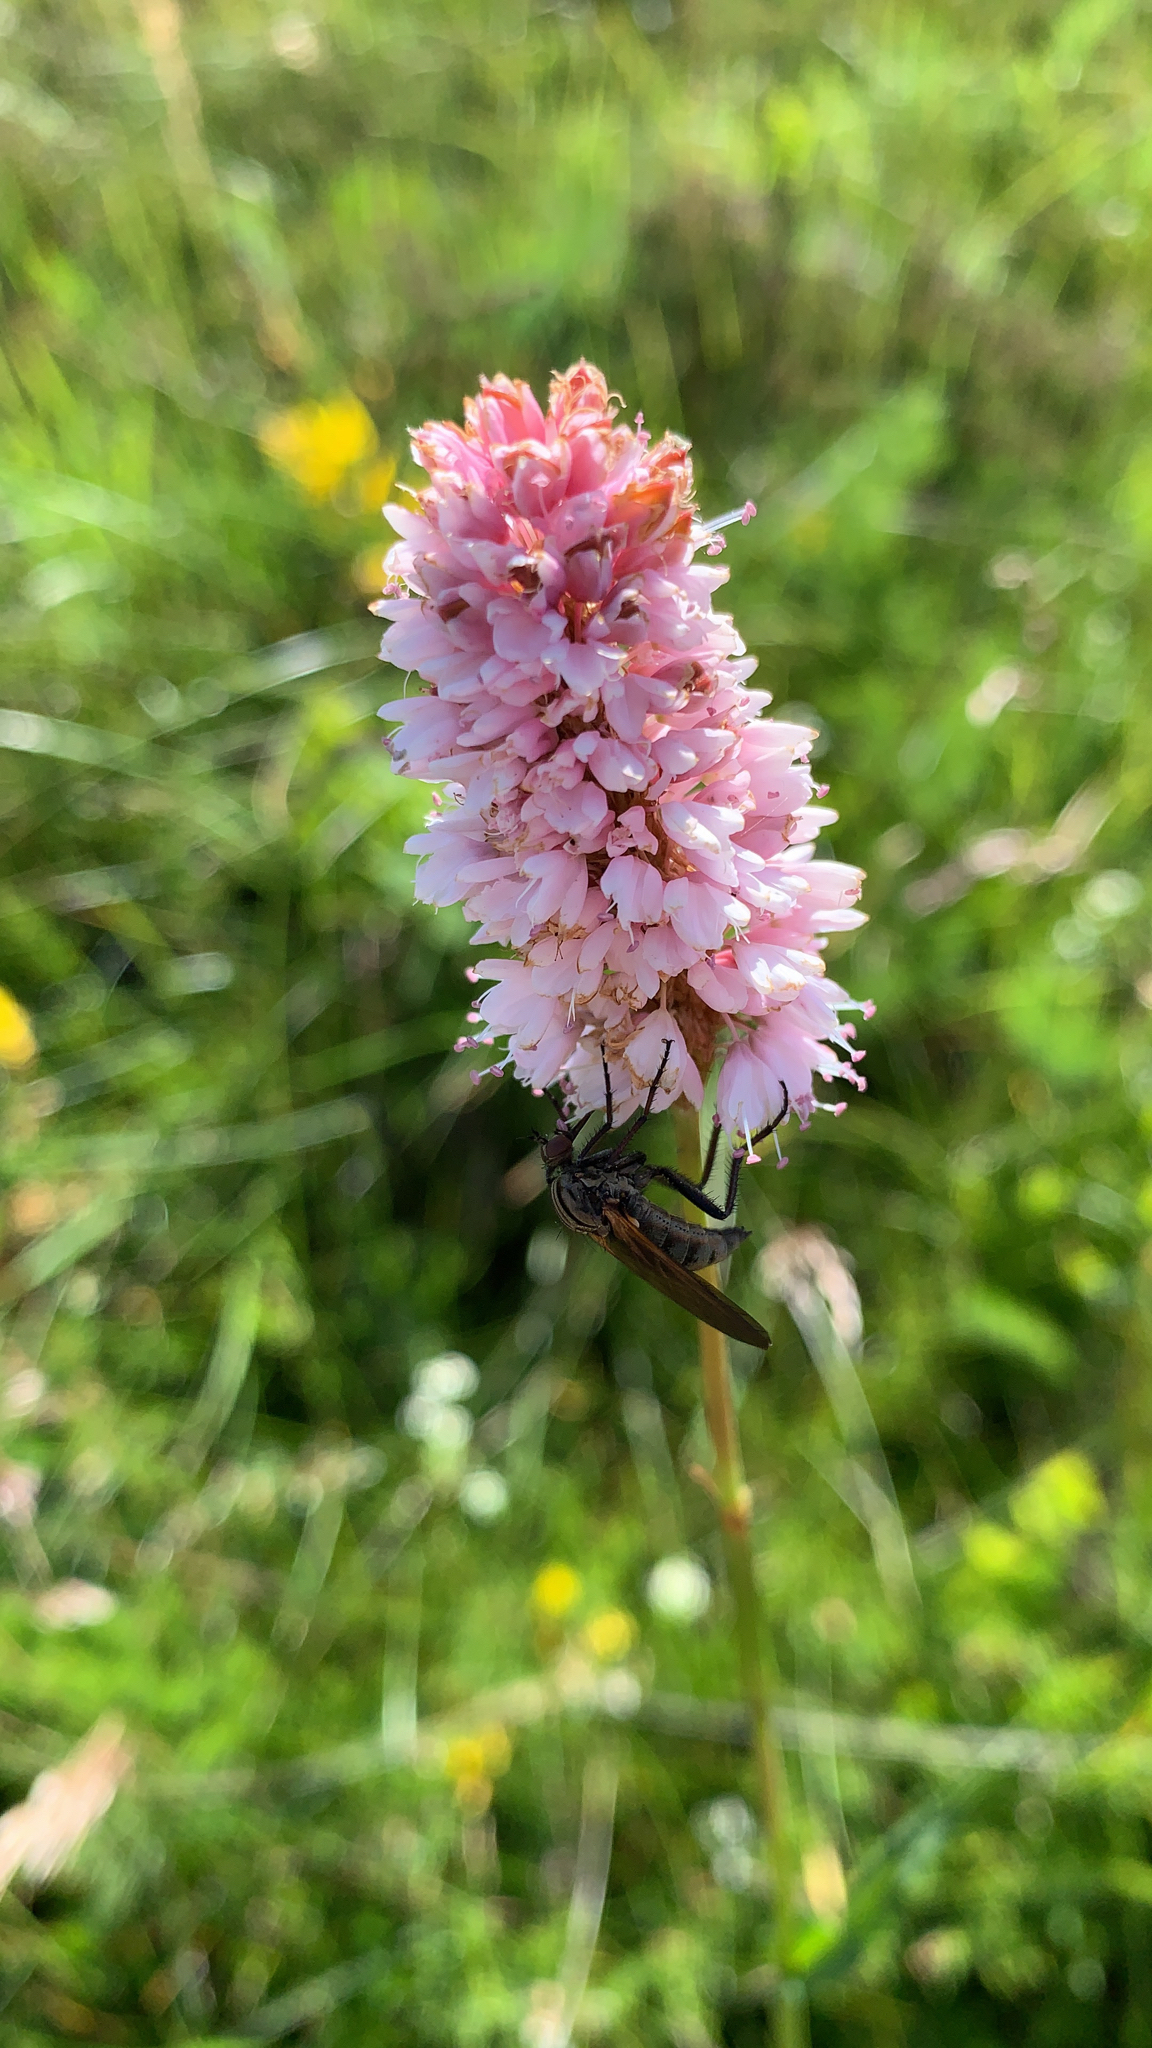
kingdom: Plantae
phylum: Tracheophyta
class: Magnoliopsida
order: Caryophyllales
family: Polygonaceae
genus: Bistorta
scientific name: Bistorta officinalis
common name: Common bistort
